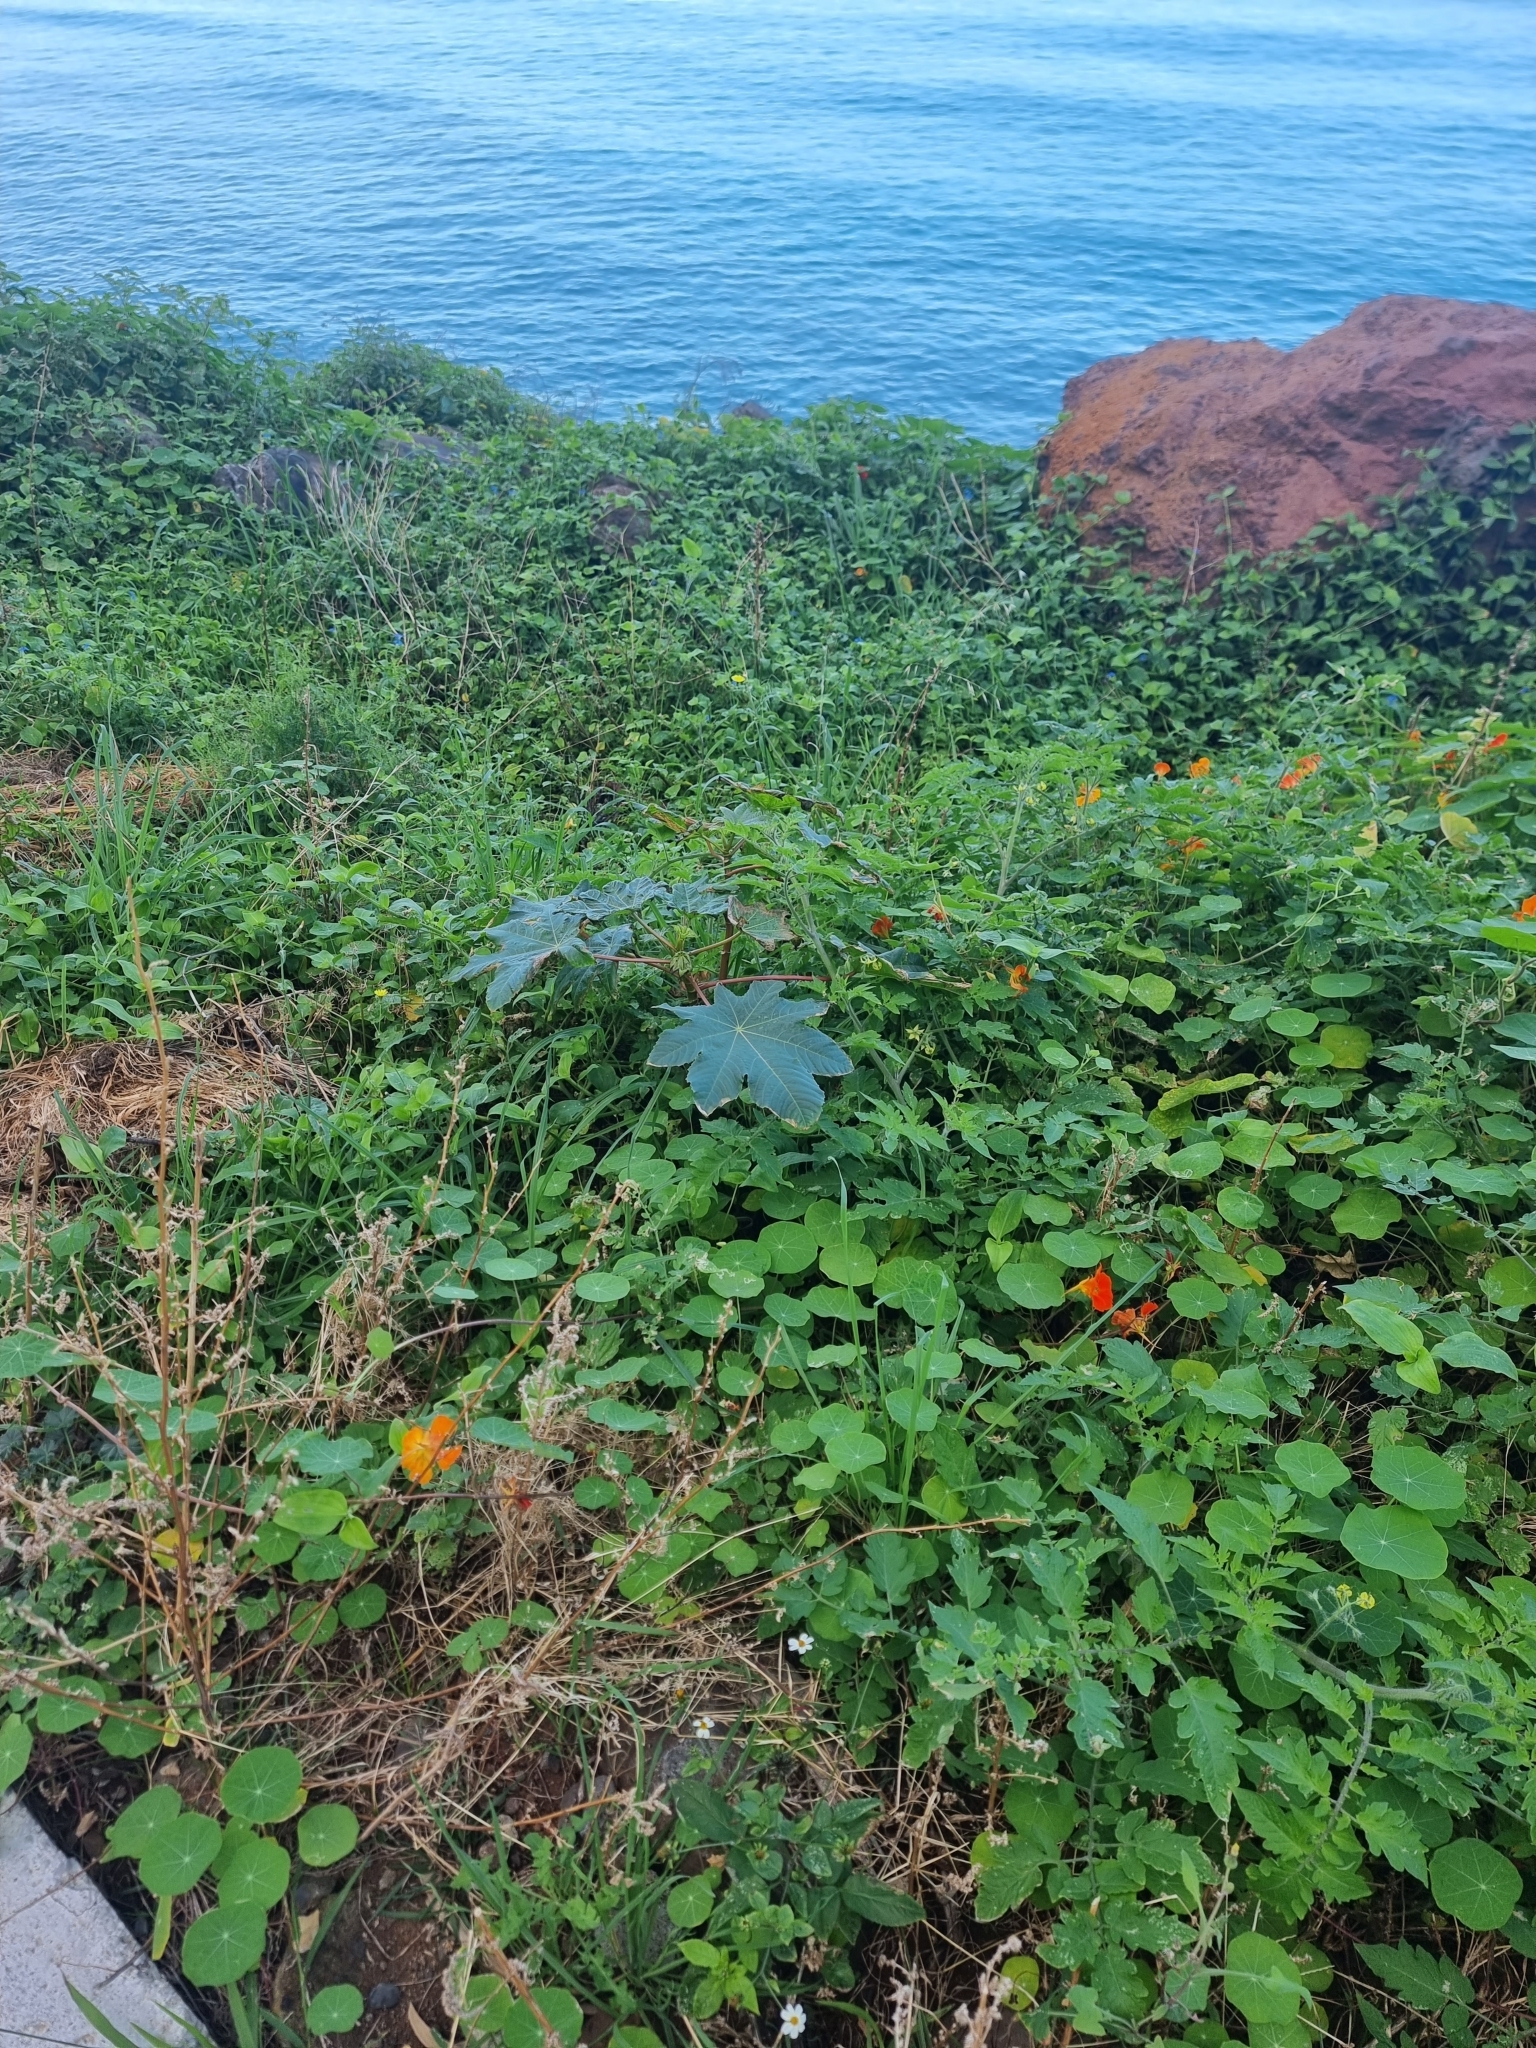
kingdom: Plantae
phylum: Tracheophyta
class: Magnoliopsida
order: Malpighiales
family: Euphorbiaceae
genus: Ricinus
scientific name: Ricinus communis
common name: Castor-oil-plant
